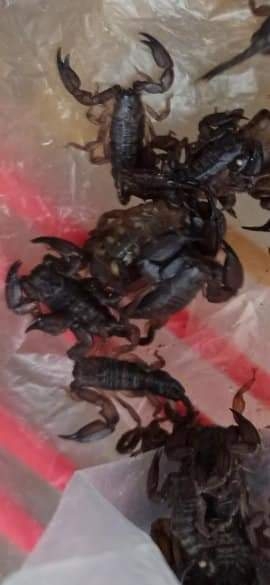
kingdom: Animalia
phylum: Arthropoda
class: Arachnida
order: Scorpiones
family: Hormuridae
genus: Liocheles
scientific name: Liocheles australasiae
